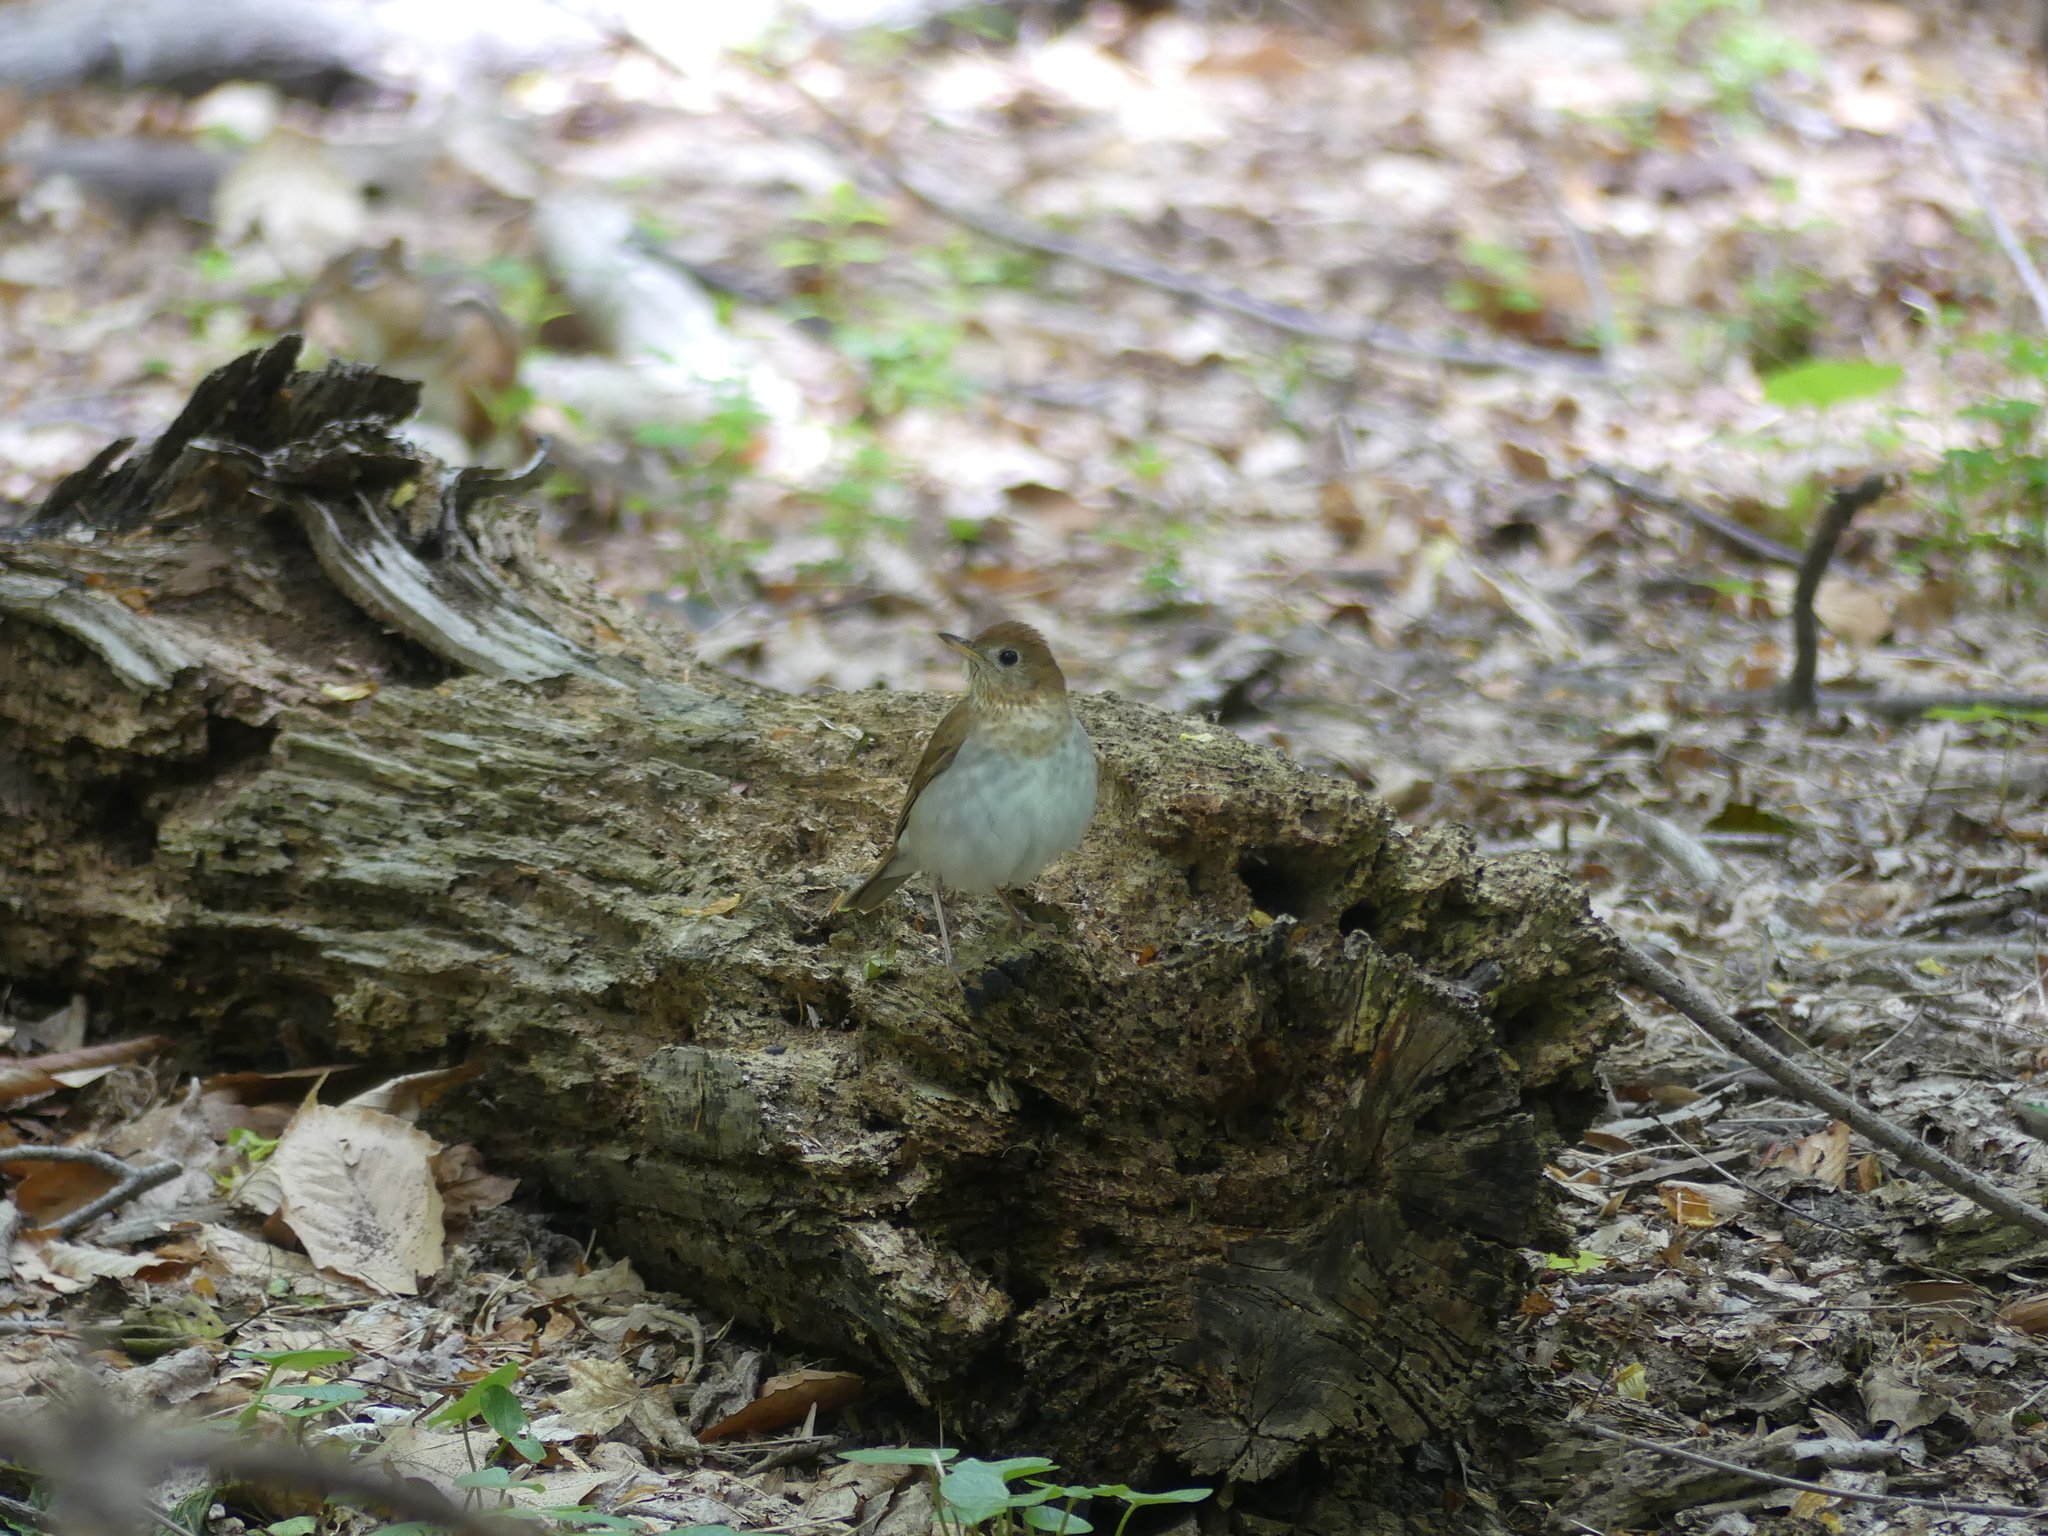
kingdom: Animalia
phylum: Chordata
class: Aves
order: Passeriformes
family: Turdidae
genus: Catharus
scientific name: Catharus fuscescens
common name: Veery
